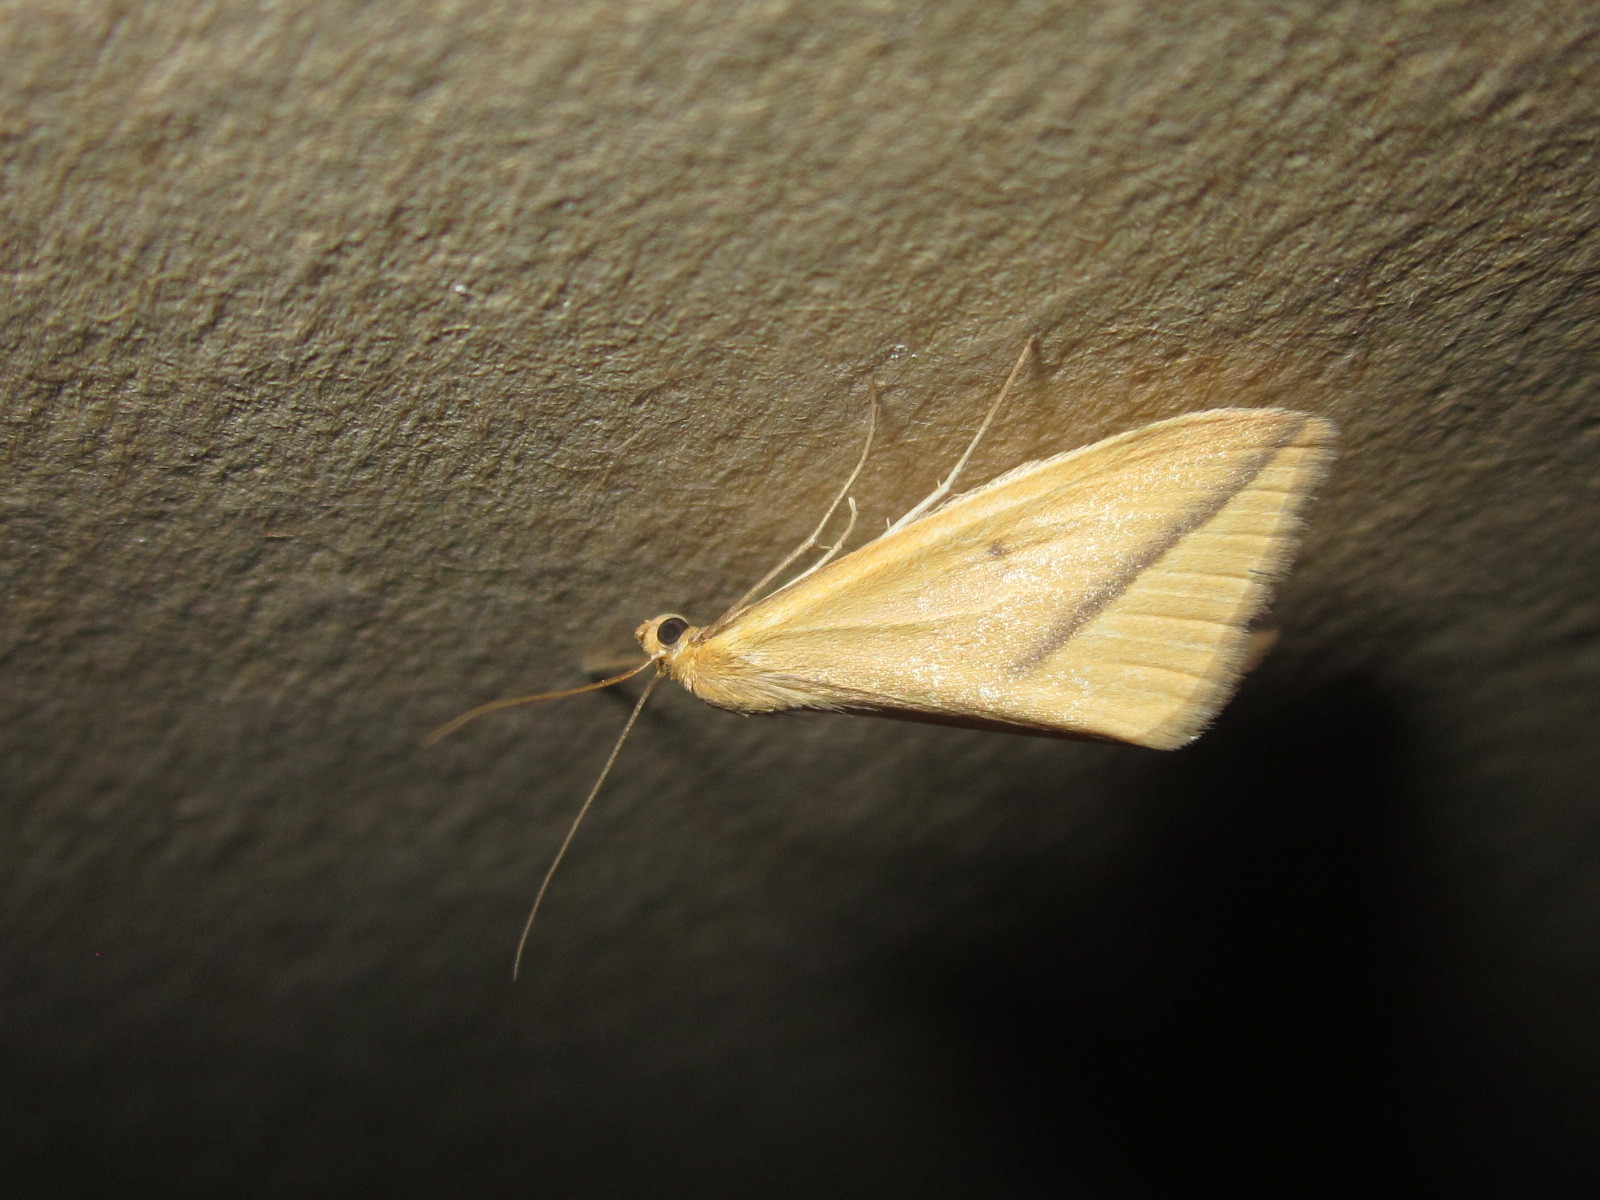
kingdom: Animalia
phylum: Arthropoda
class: Insecta
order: Lepidoptera
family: Geometridae
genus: Rhodometra
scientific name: Rhodometra sacraria
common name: Vestal
